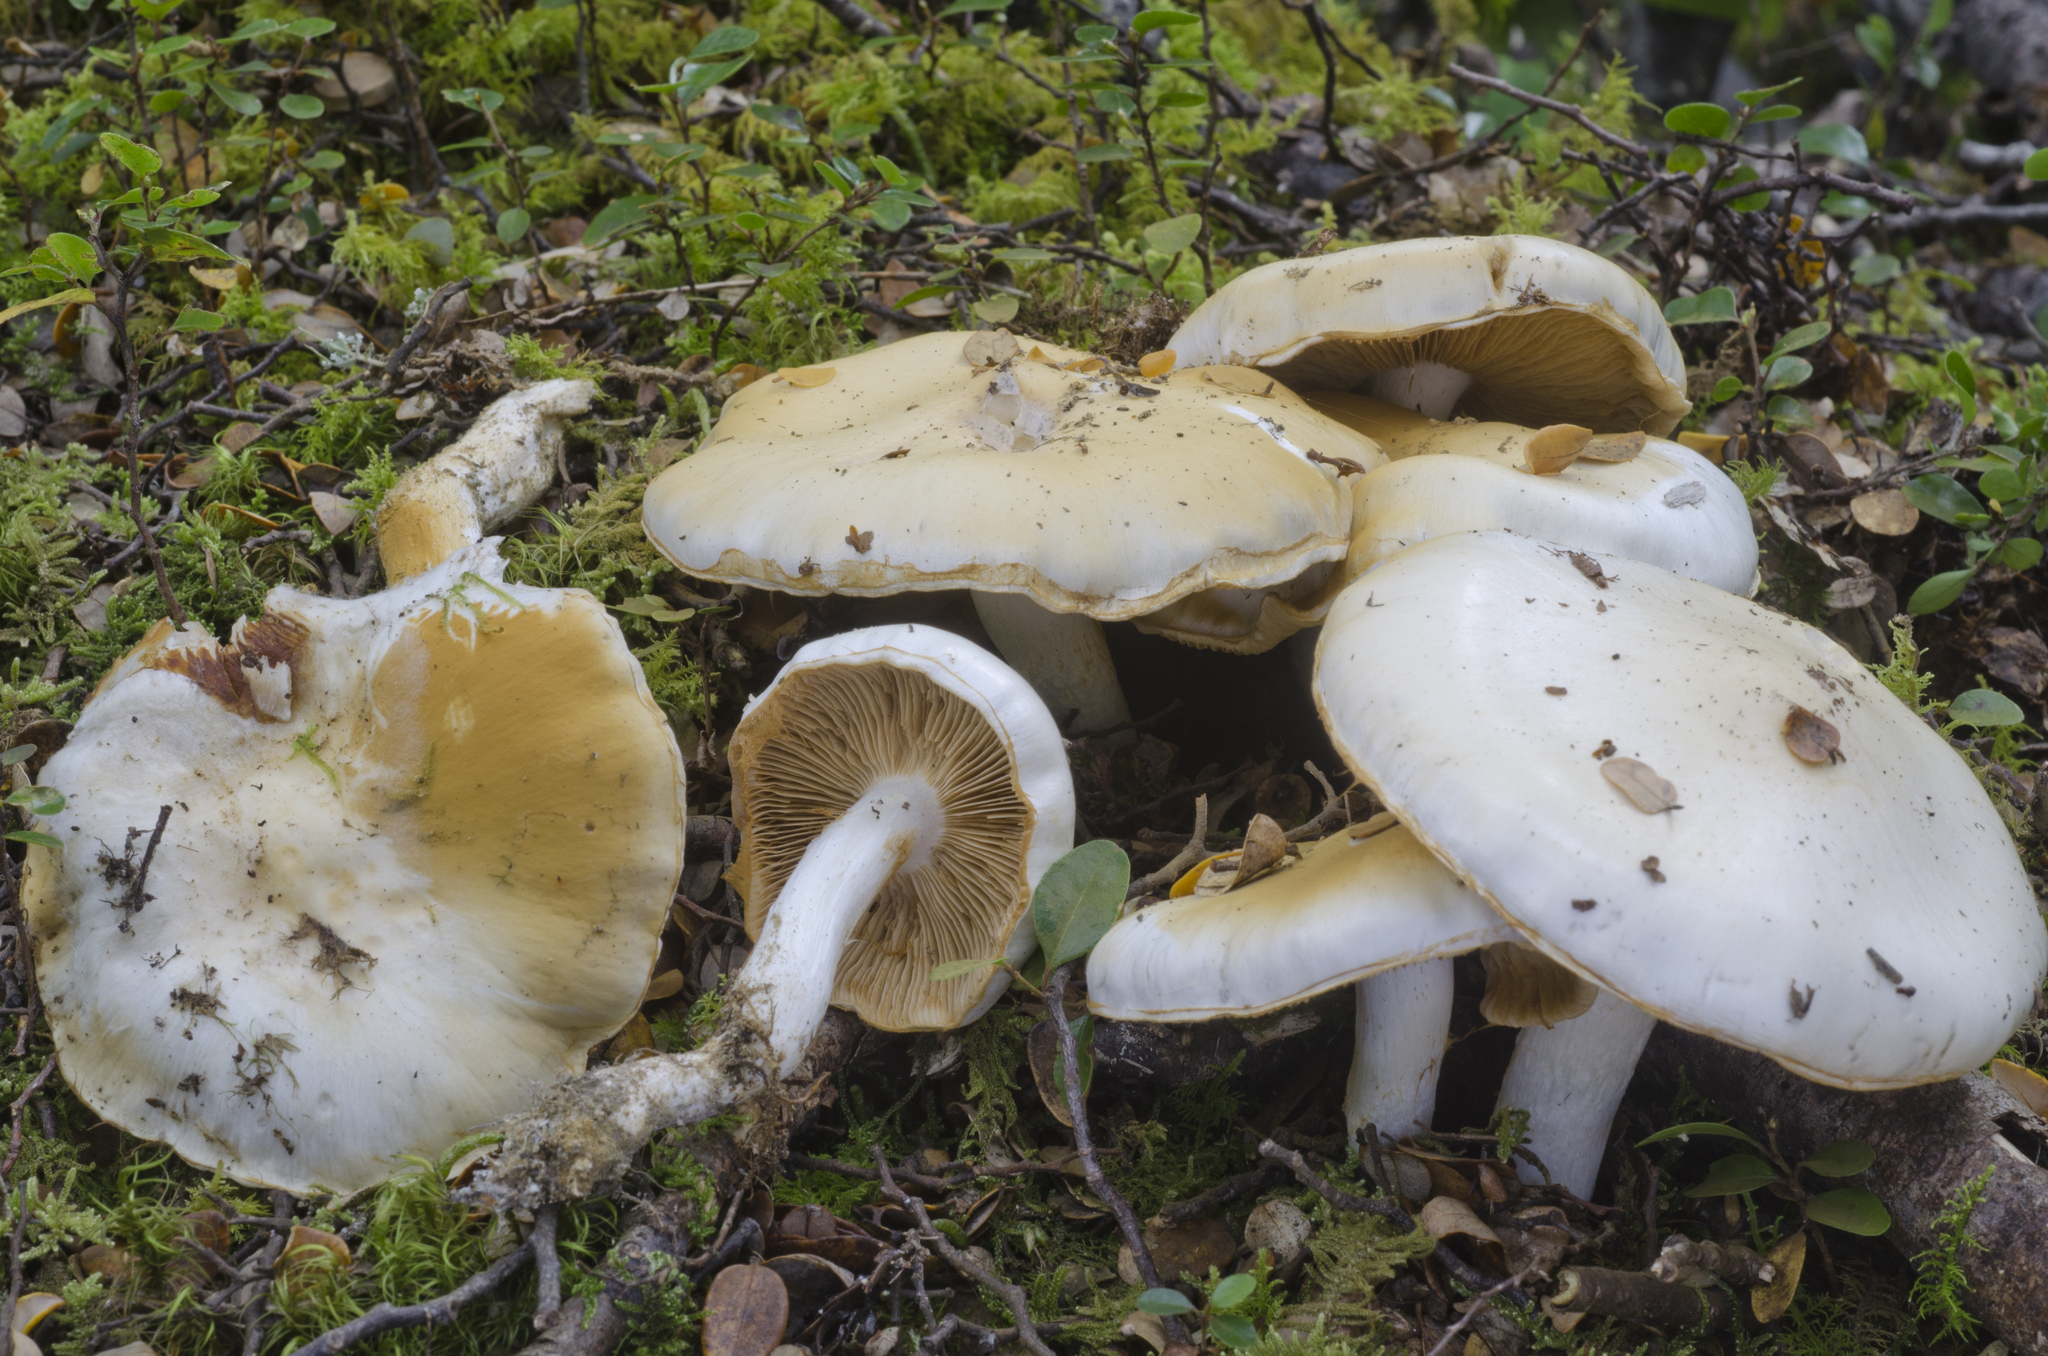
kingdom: Fungi
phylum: Basidiomycota
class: Agaricomycetes
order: Agaricales
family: Cortinariaceae
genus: Thaxterogaster
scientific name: Thaxterogaster cretax
